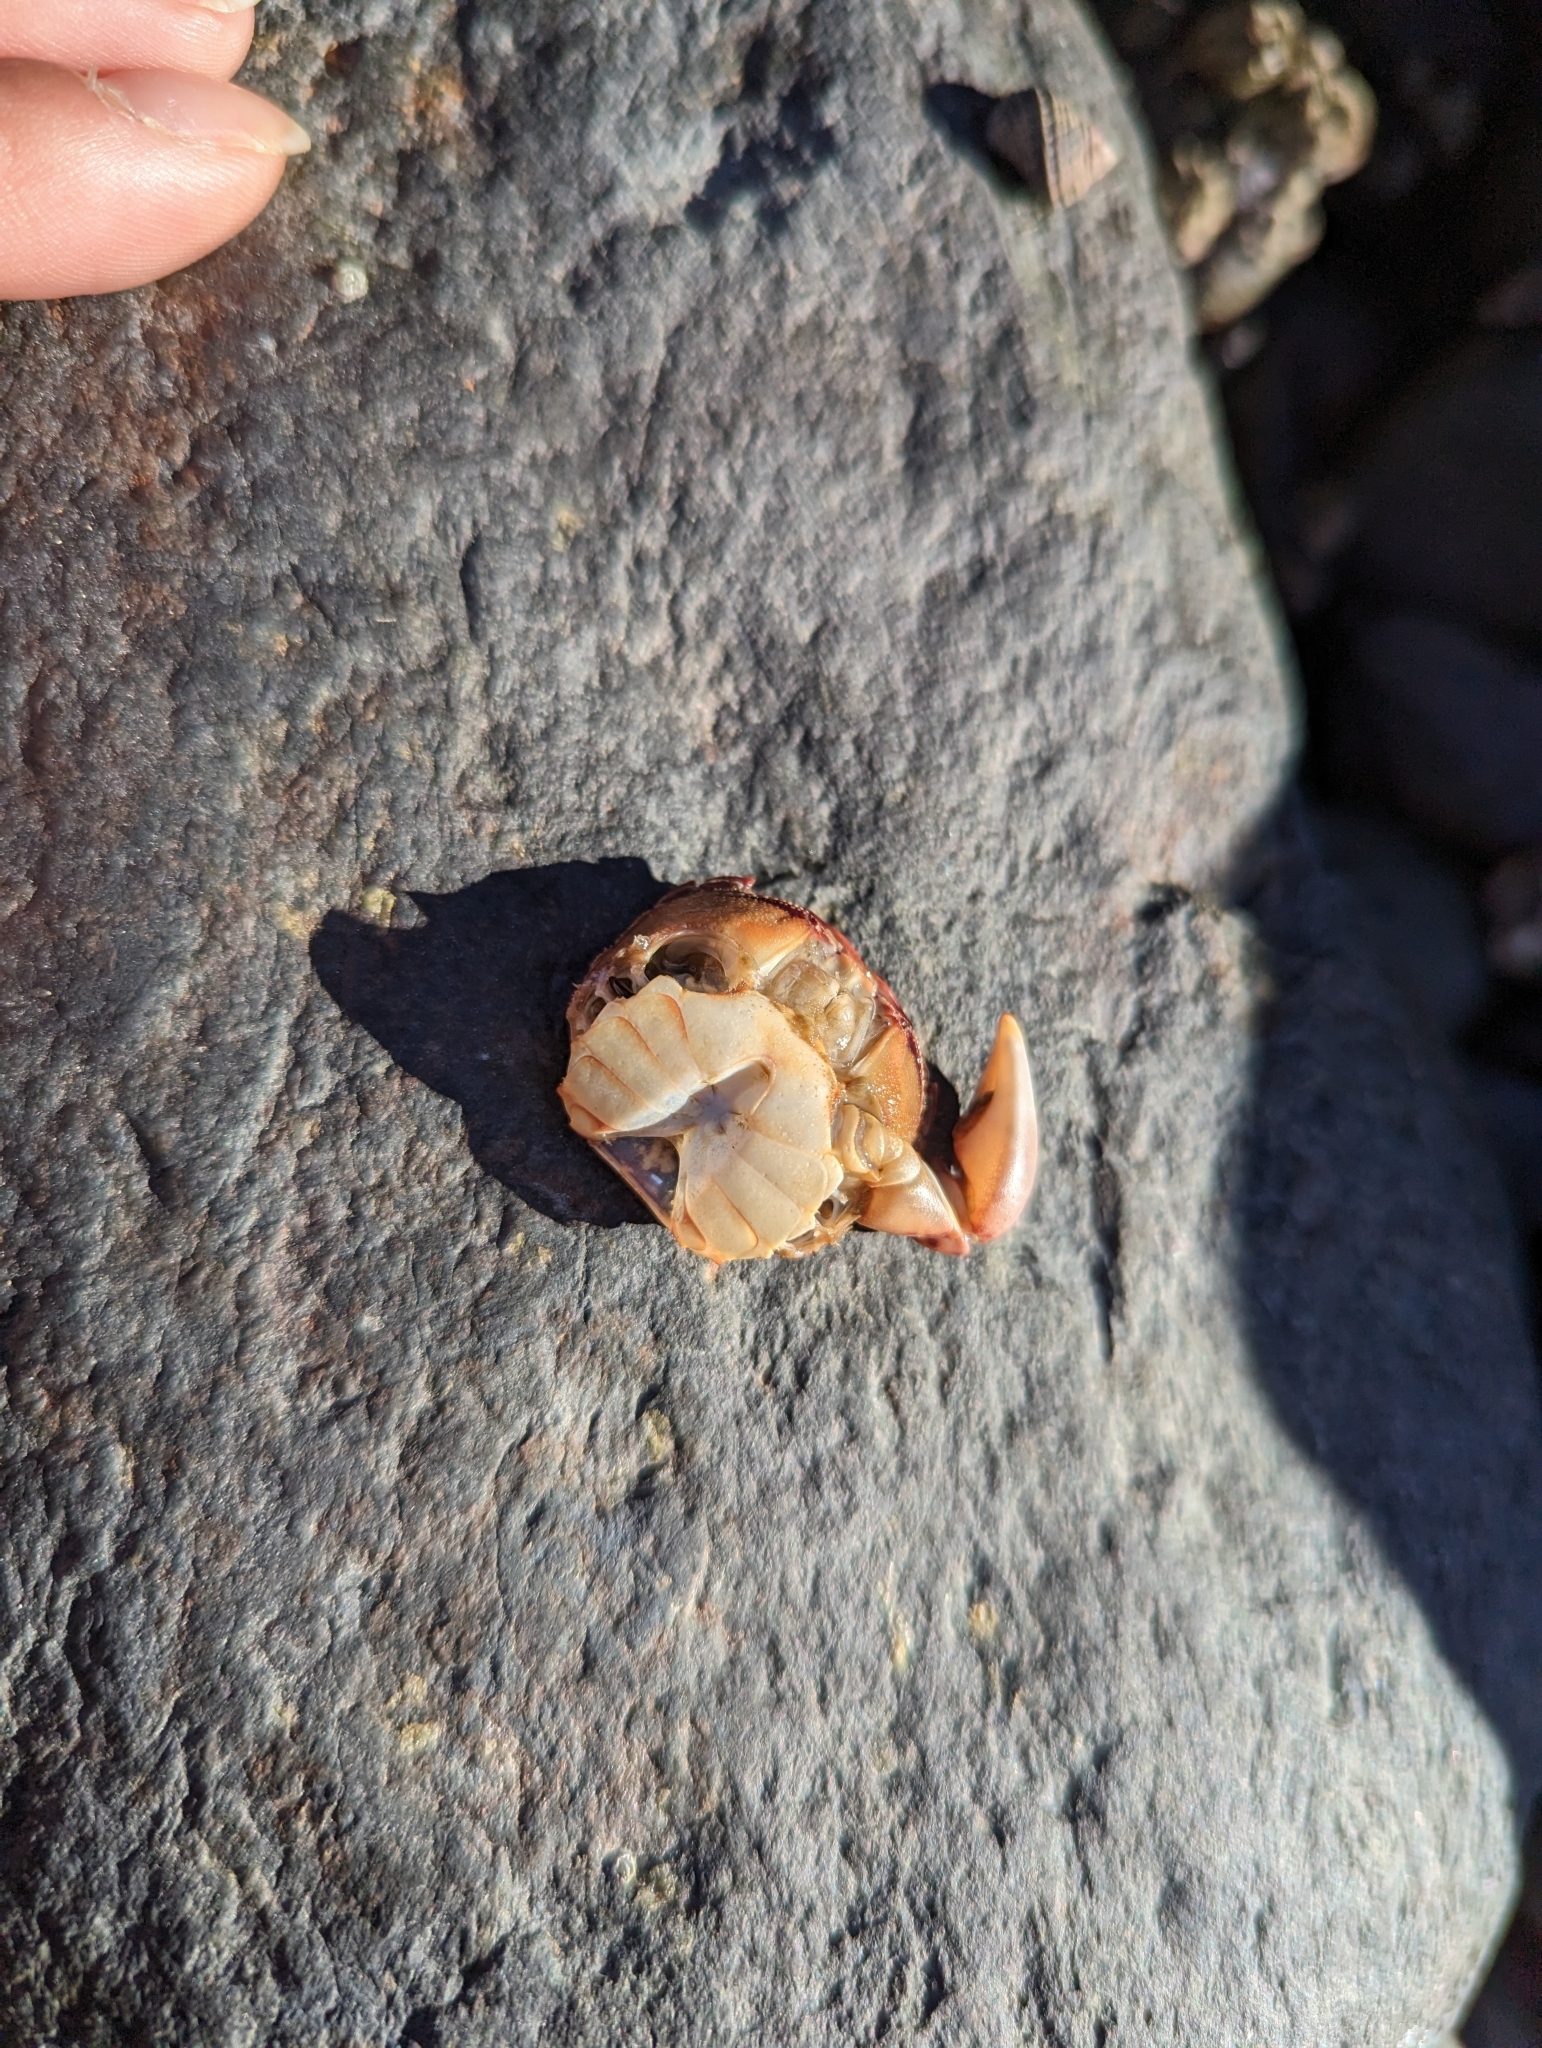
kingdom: Animalia
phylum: Arthropoda
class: Malacostraca
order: Decapoda
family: Varunidae
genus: Hemigrapsus
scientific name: Hemigrapsus nudus
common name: Purple shore crab
